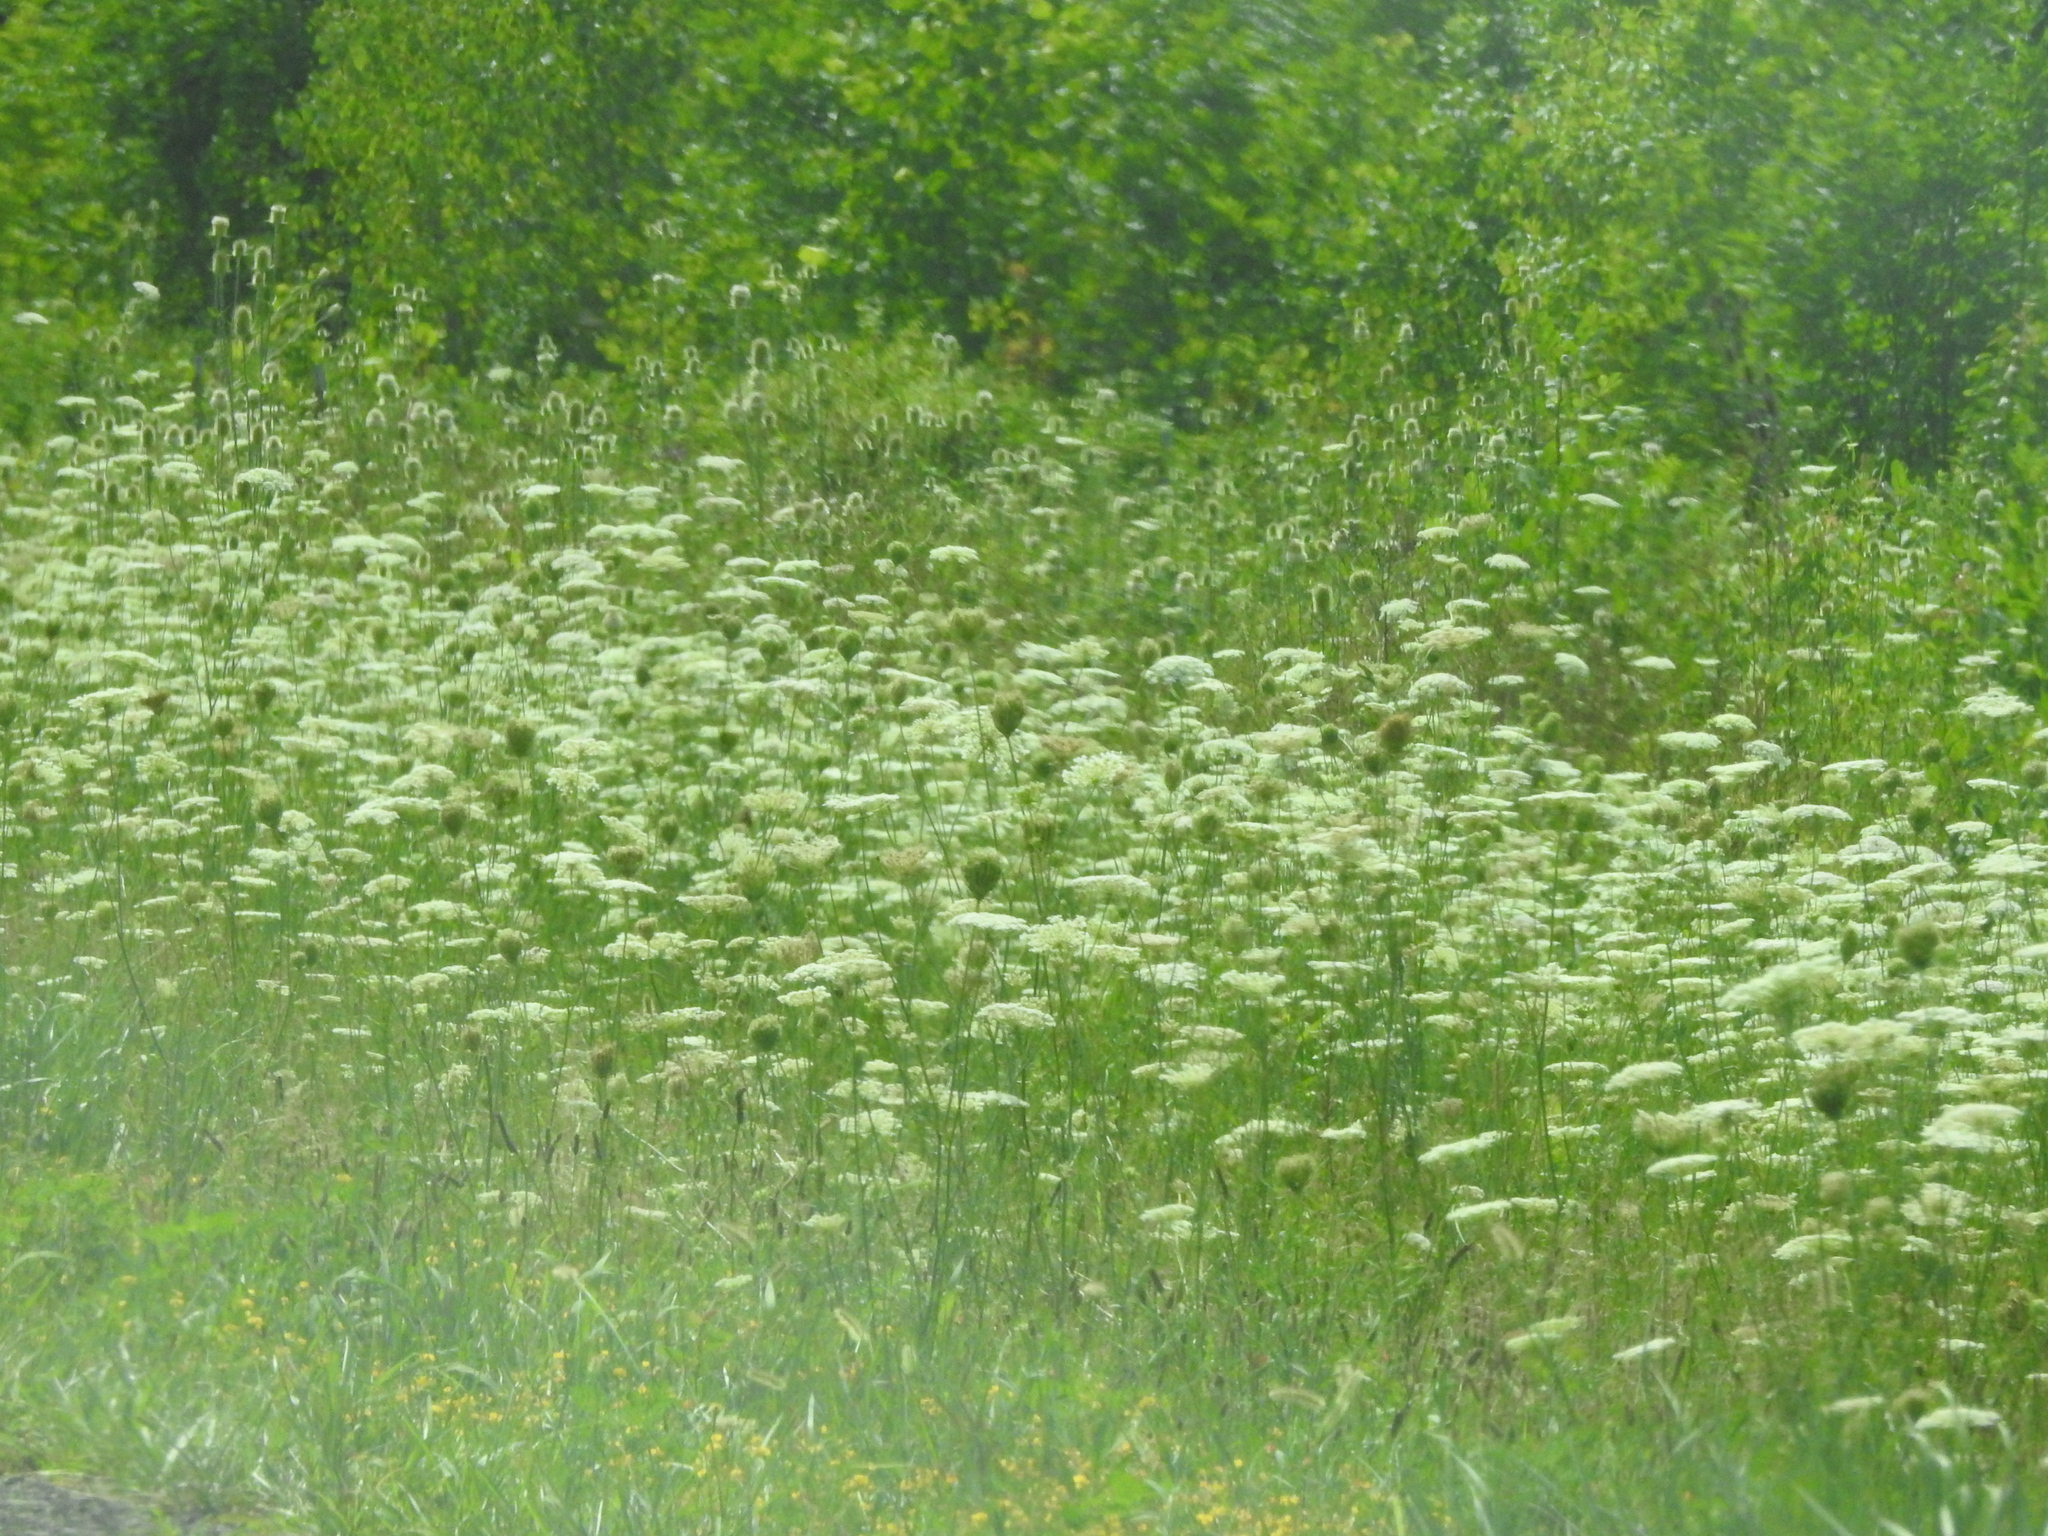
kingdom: Plantae
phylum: Tracheophyta
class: Magnoliopsida
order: Apiales
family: Apiaceae
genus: Daucus
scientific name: Daucus carota
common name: Wild carrot
